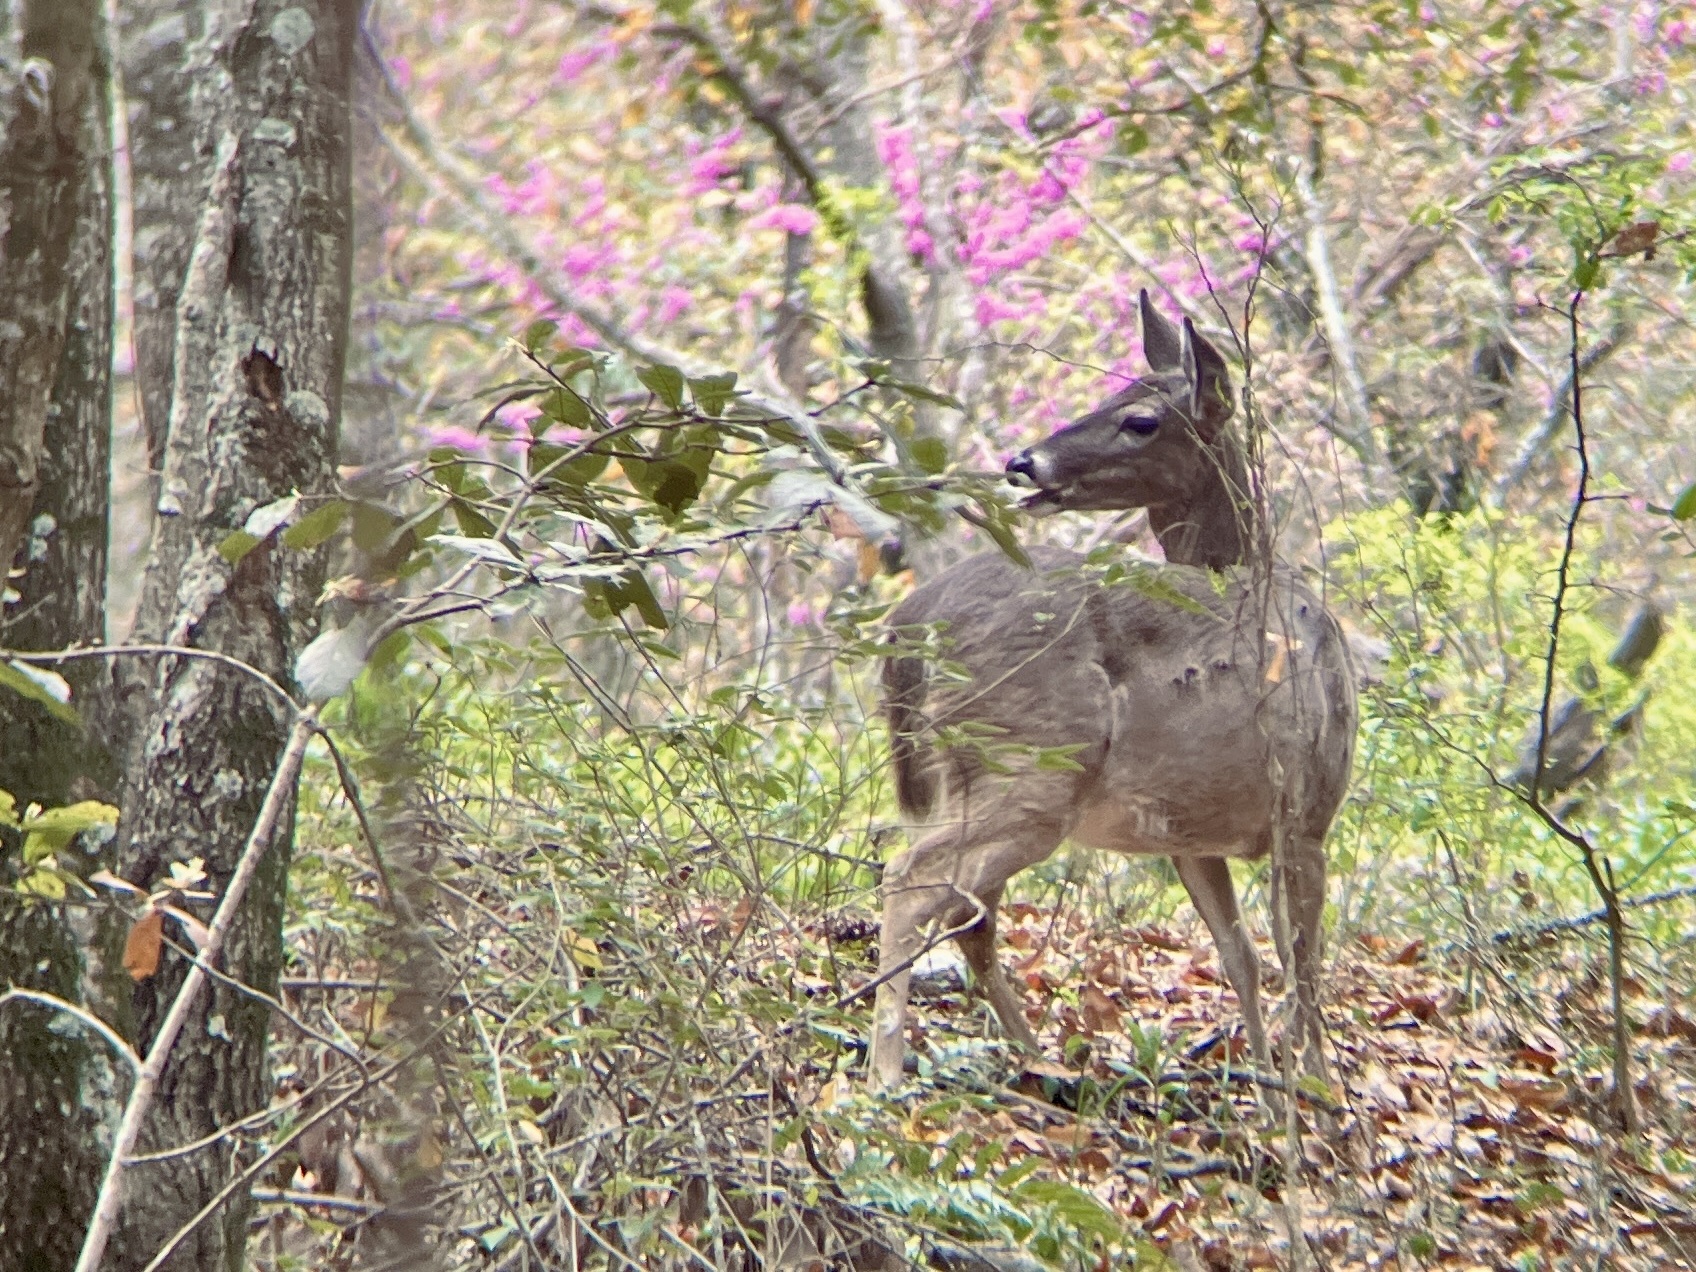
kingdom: Animalia
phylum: Chordata
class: Mammalia
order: Artiodactyla
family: Cervidae
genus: Odocoileus
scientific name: Odocoileus virginianus
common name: White-tailed deer
